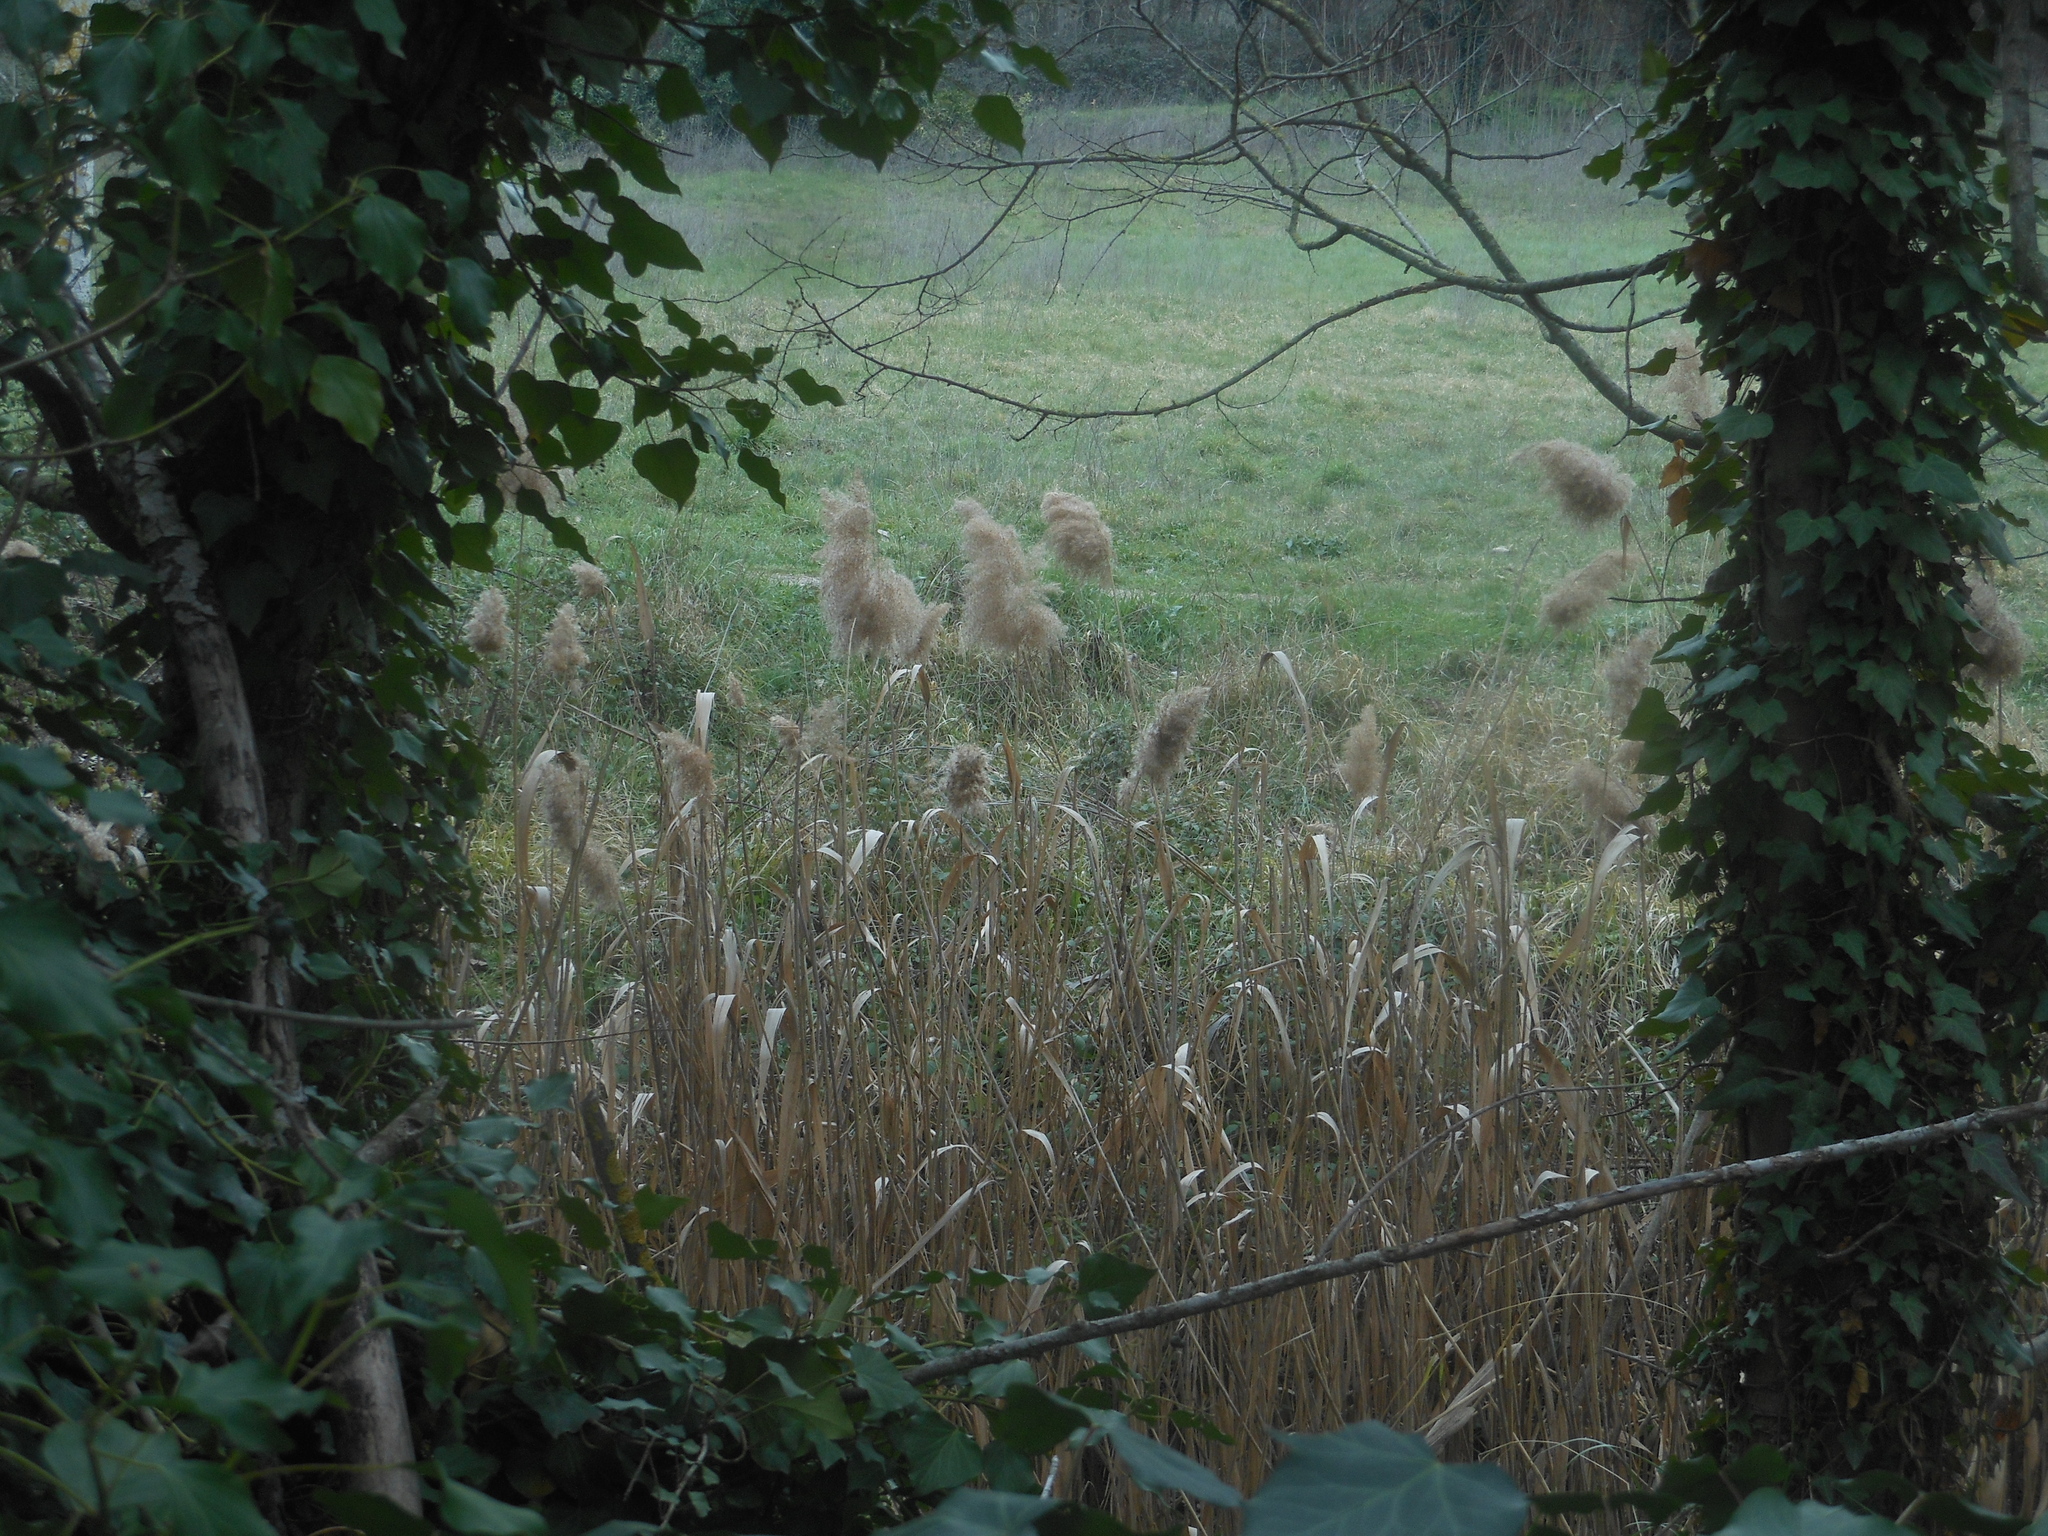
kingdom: Plantae
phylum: Tracheophyta
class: Liliopsida
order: Poales
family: Poaceae
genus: Phragmites
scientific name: Phragmites australis
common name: Common reed
